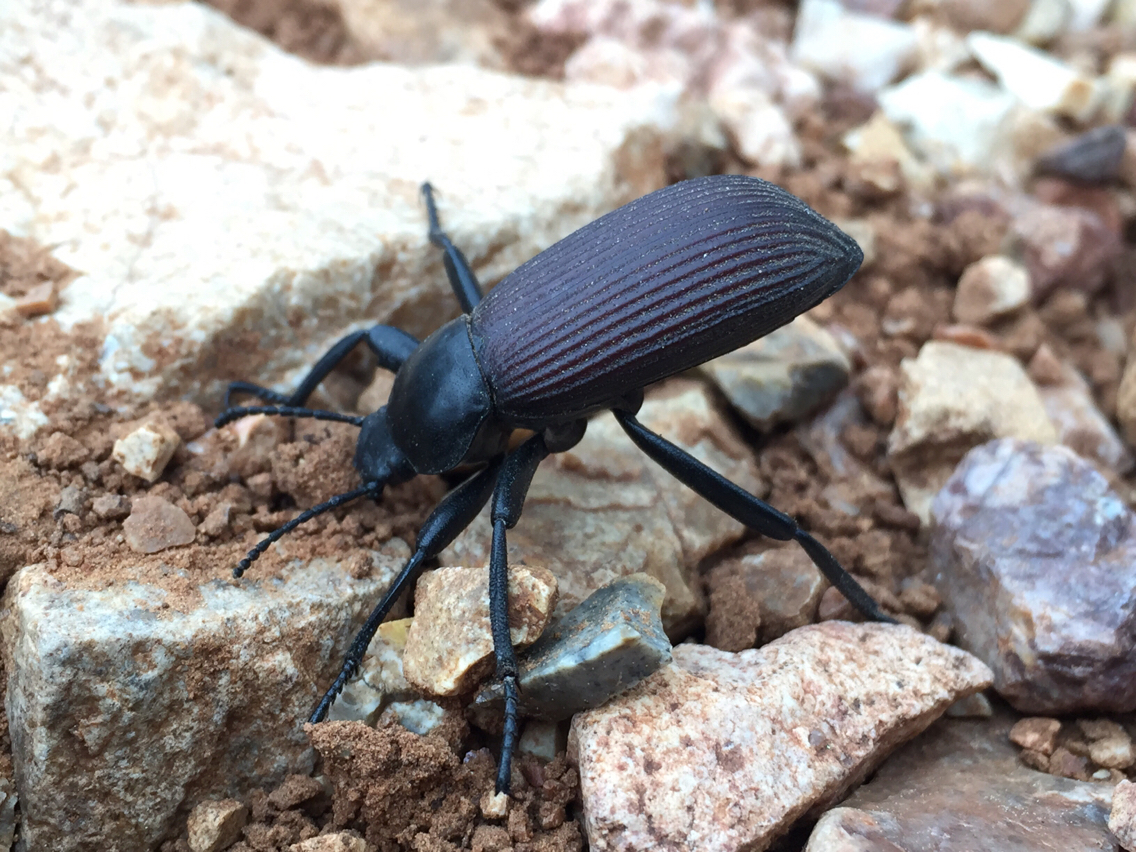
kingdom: Animalia
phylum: Arthropoda
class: Insecta
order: Coleoptera
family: Tenebrionidae
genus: Eleodes
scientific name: Eleodes obscura
